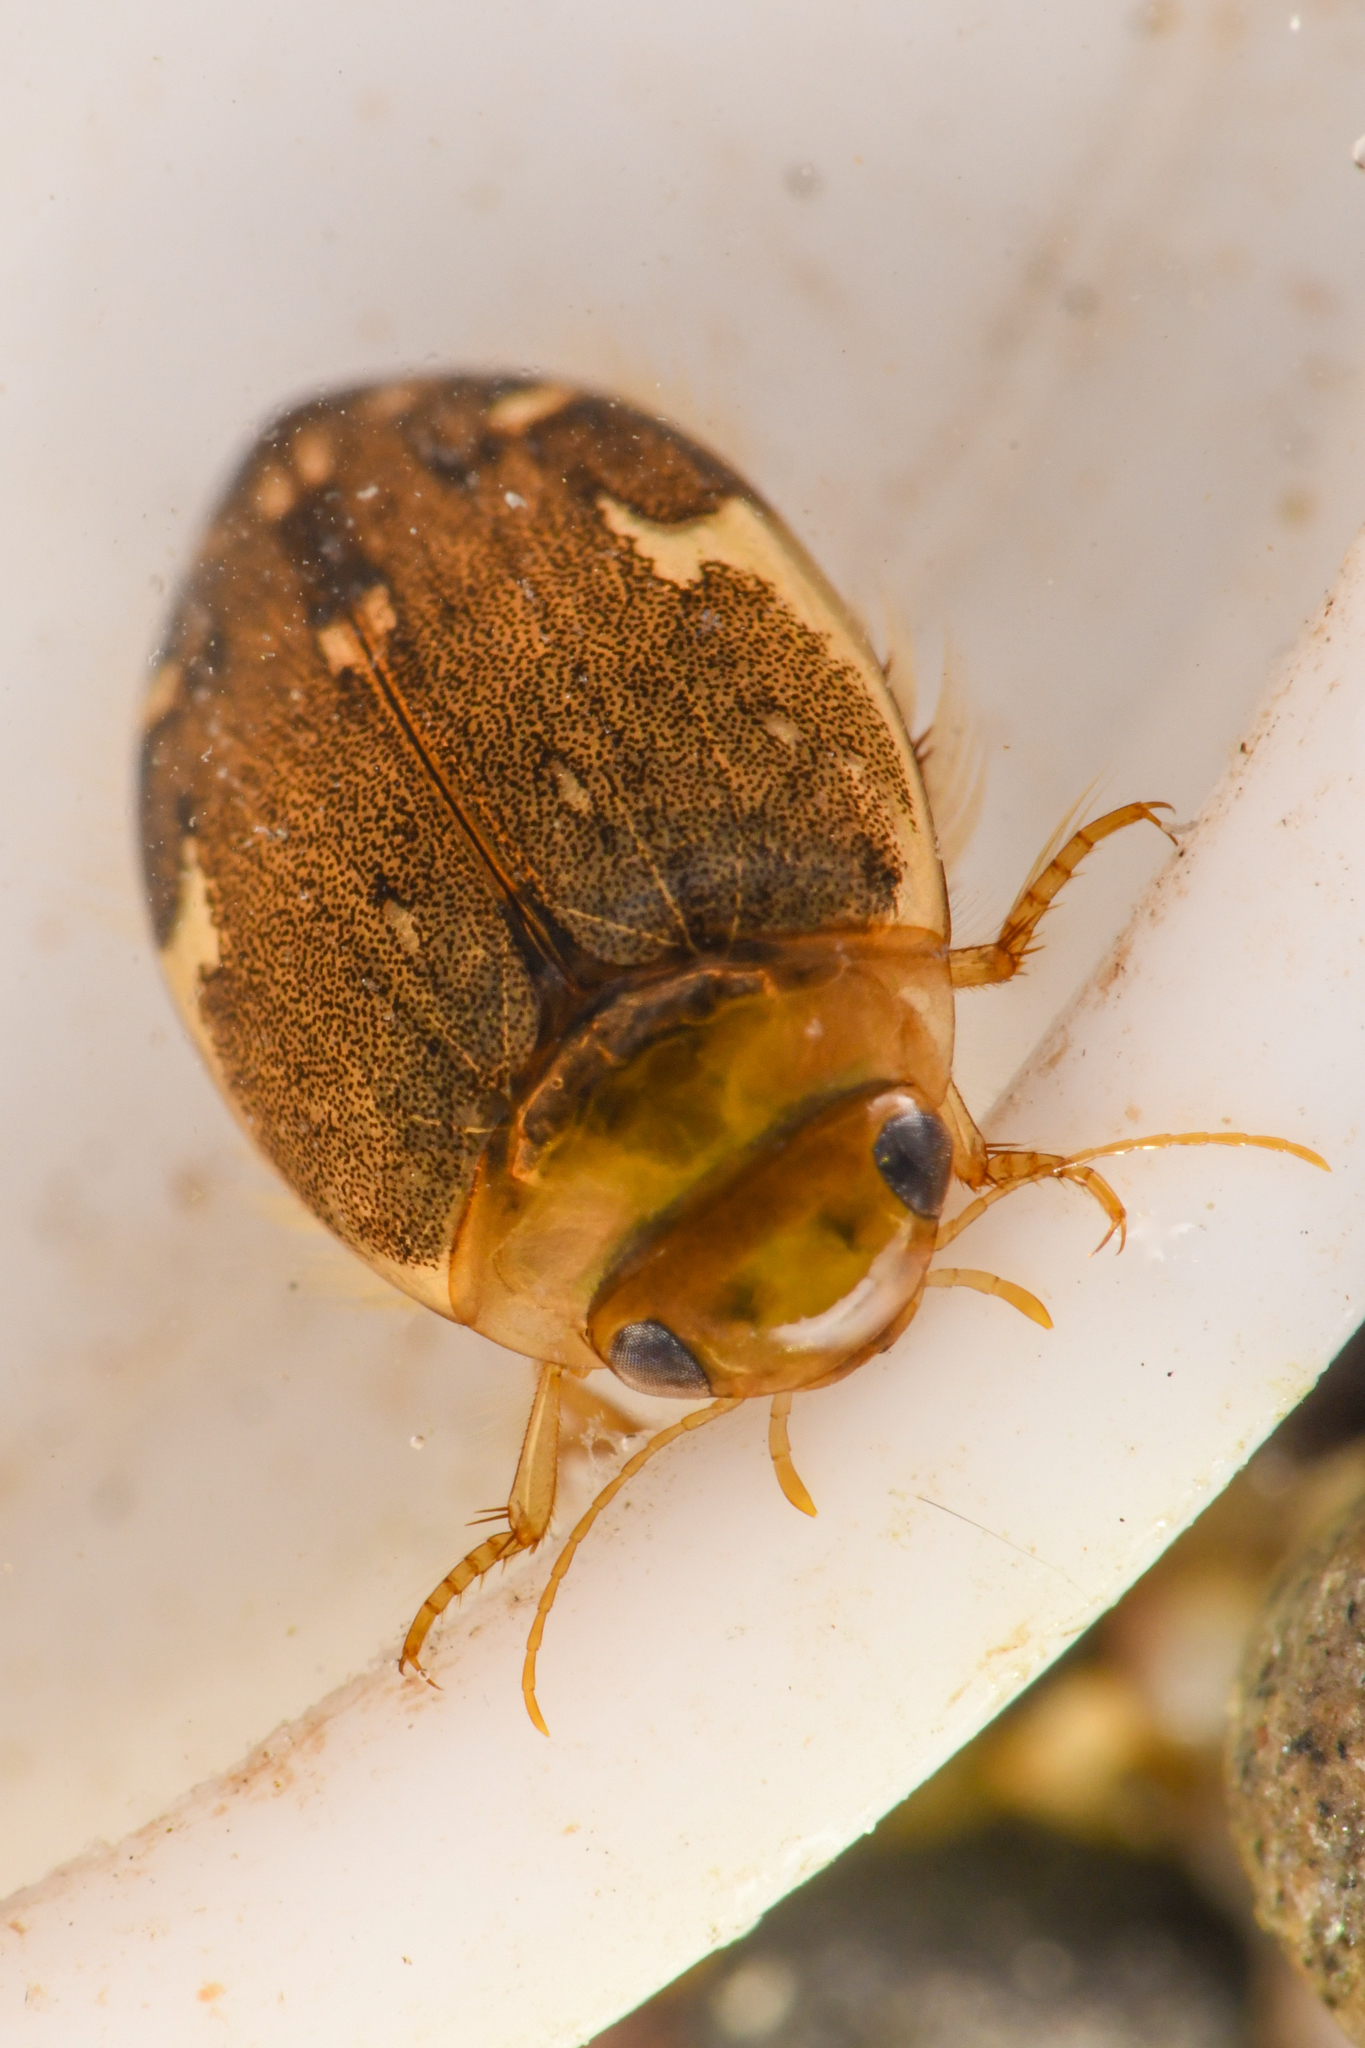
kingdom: Animalia
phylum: Arthropoda
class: Insecta
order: Coleoptera
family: Dytiscidae
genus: Laccophilus
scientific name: Laccophilus maculosus
